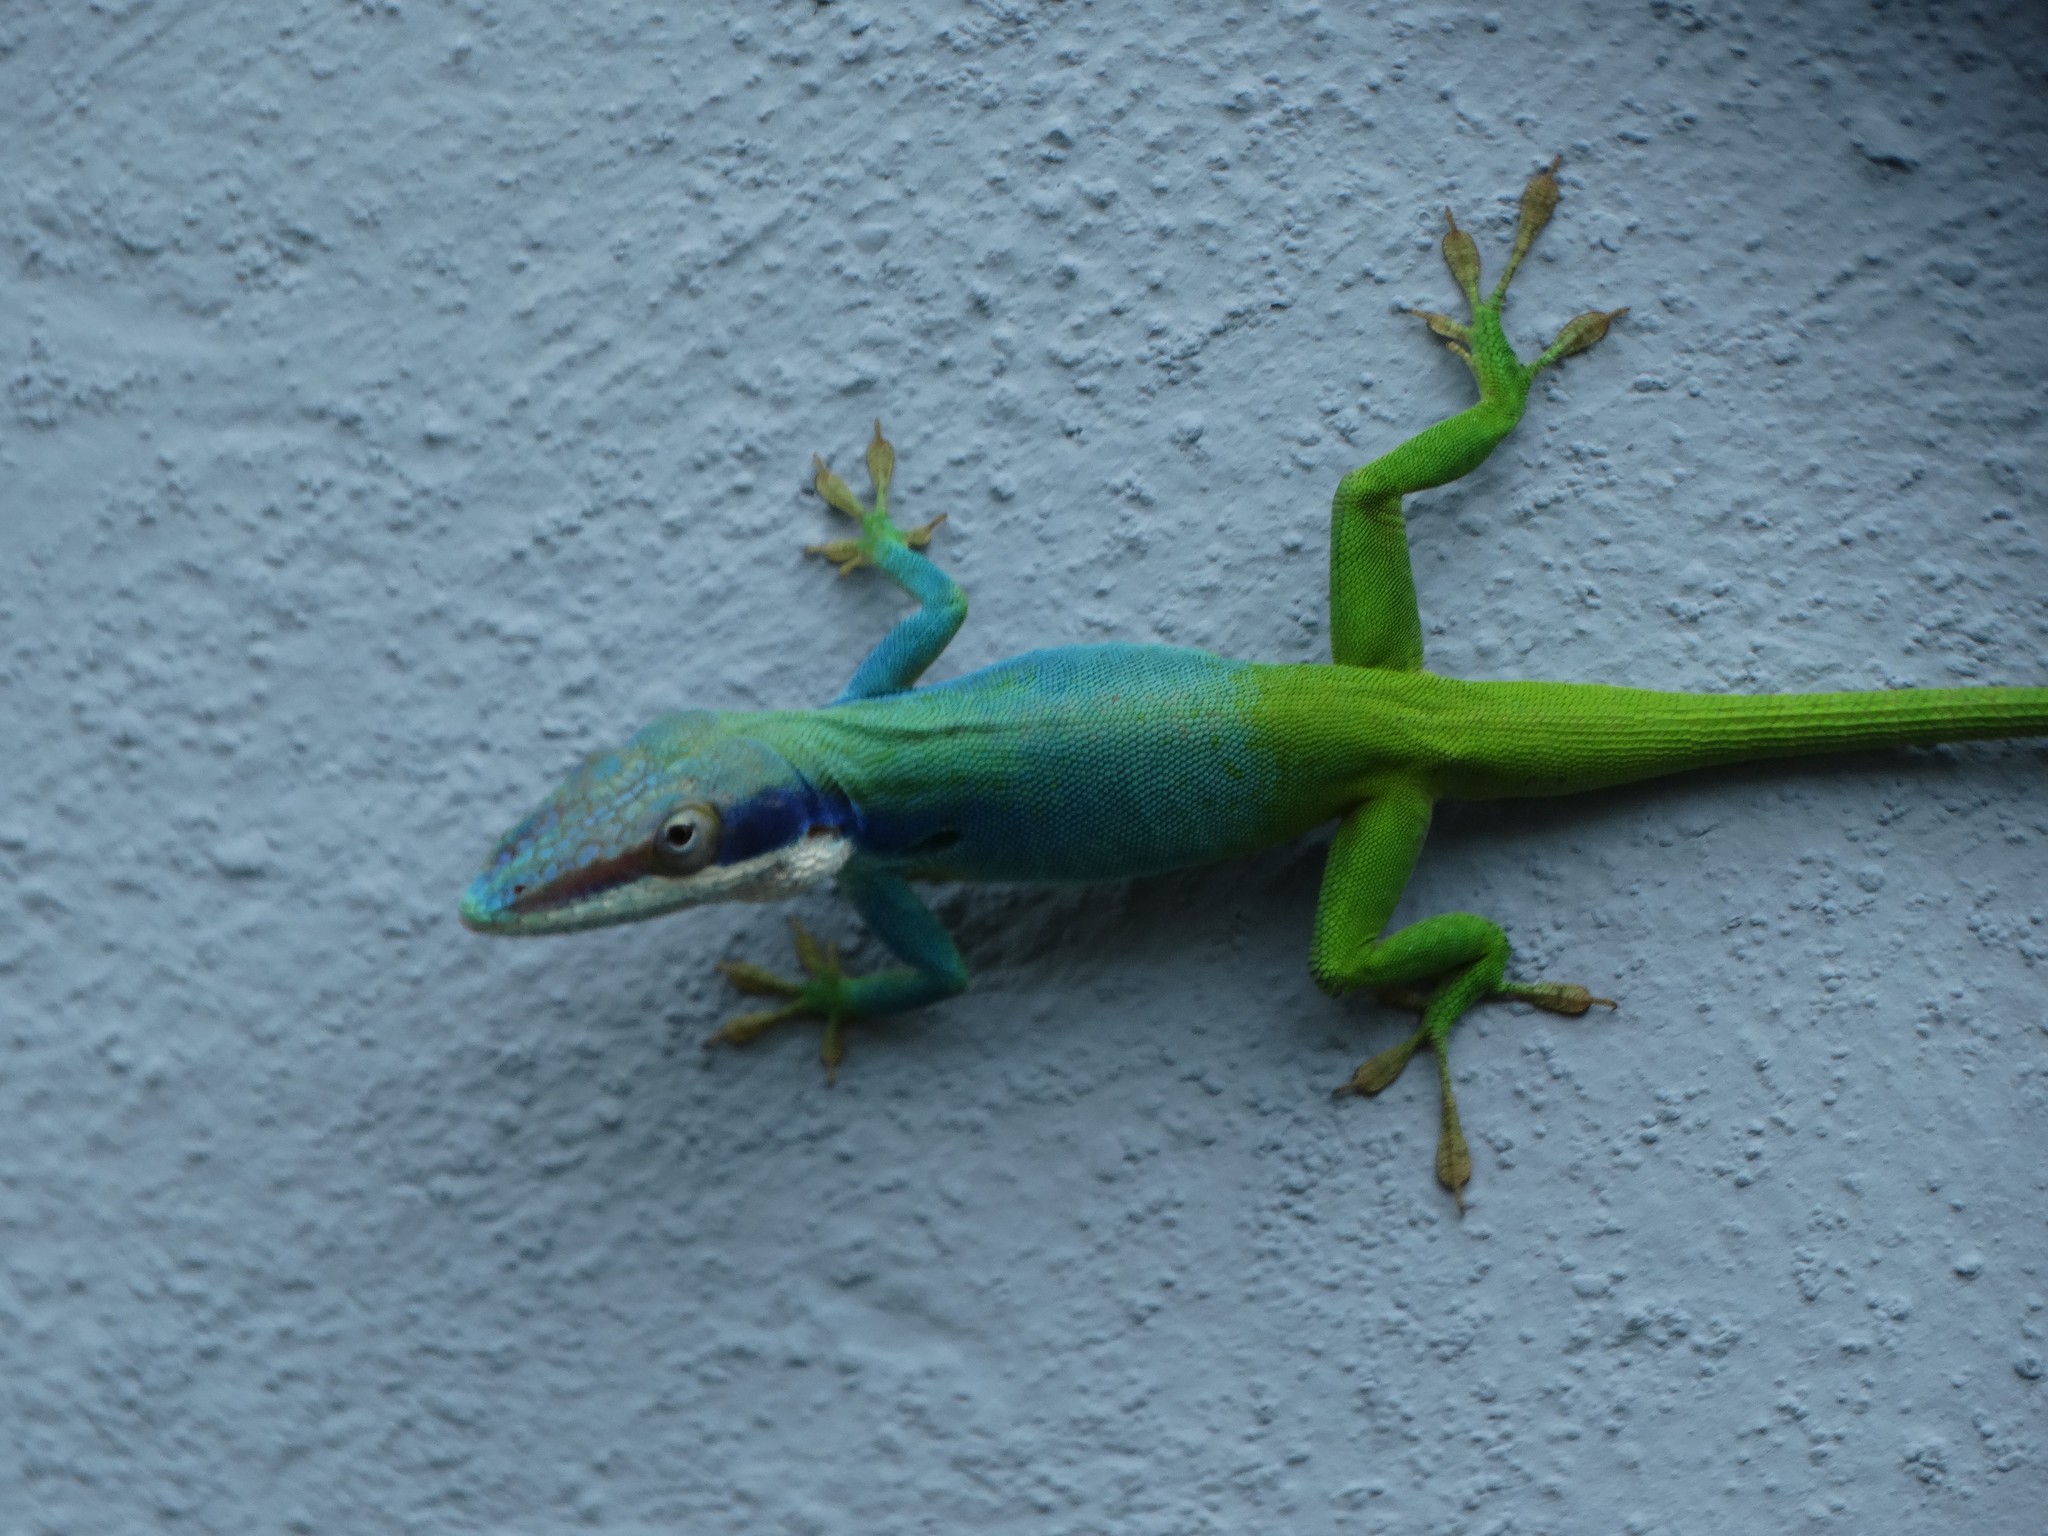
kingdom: Animalia
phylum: Chordata
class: Squamata
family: Dactyloidae
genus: Anolis
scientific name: Anolis allisoni
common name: Allison's anole
